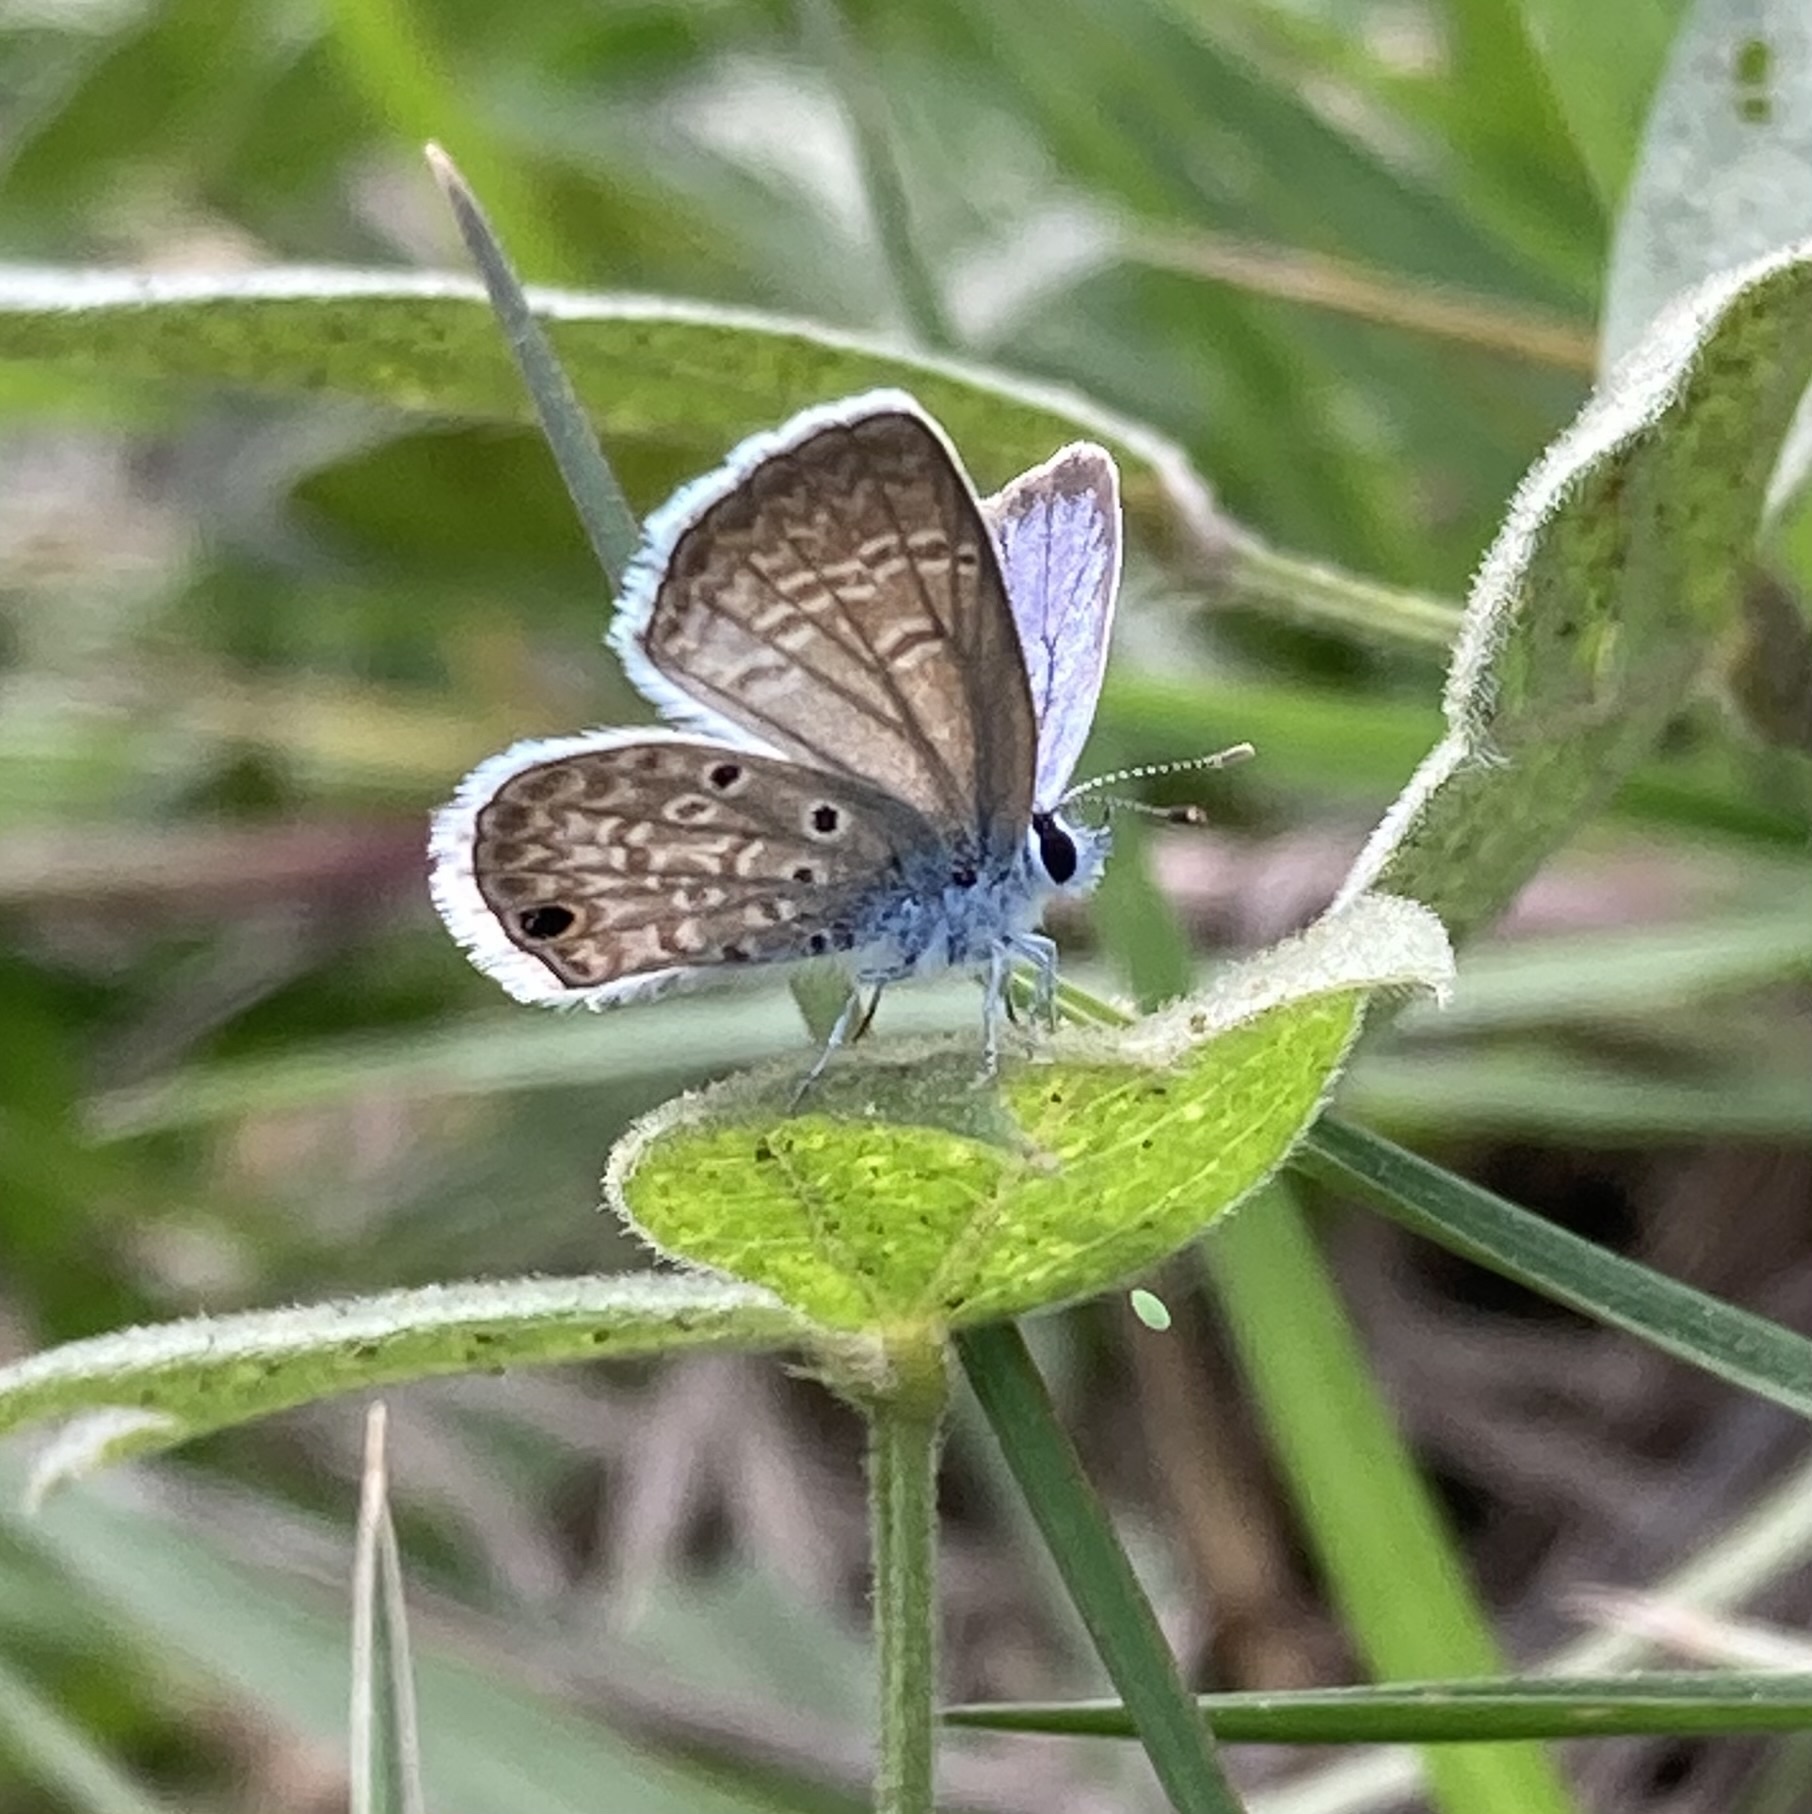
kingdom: Animalia
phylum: Arthropoda
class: Insecta
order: Lepidoptera
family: Lycaenidae
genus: Hemiargus
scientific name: Hemiargus hanno
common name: Common blue
